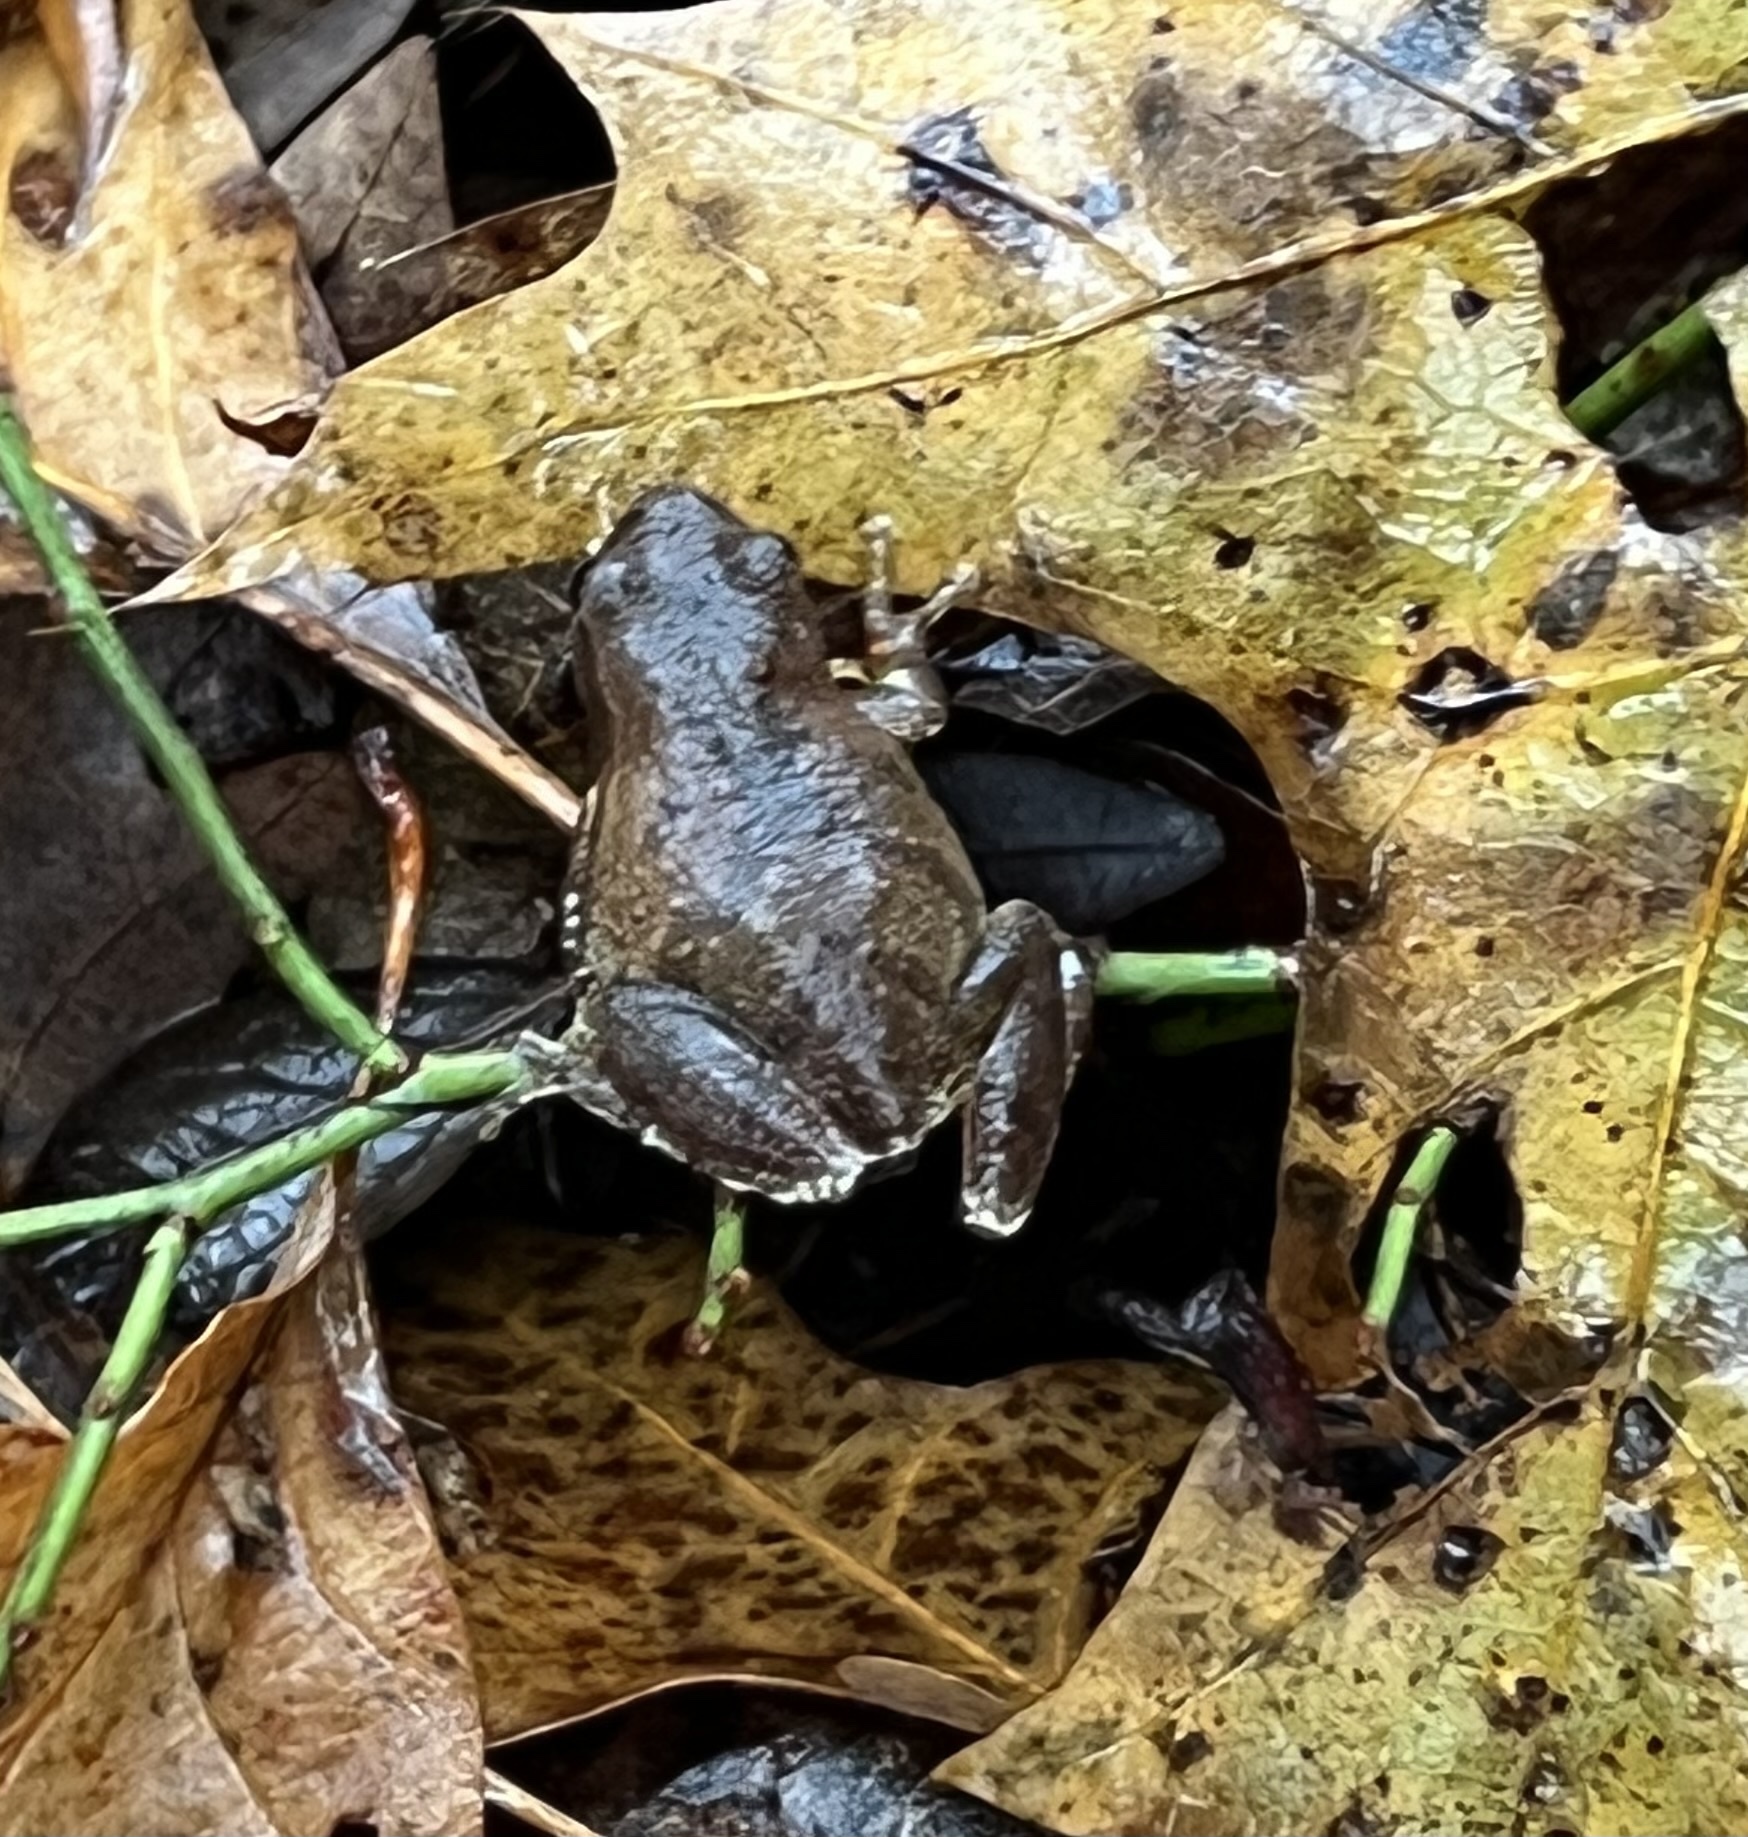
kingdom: Animalia
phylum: Chordata
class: Amphibia
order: Anura
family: Hylidae
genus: Pseudacris
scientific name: Pseudacris crucifer
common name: Spring peeper
